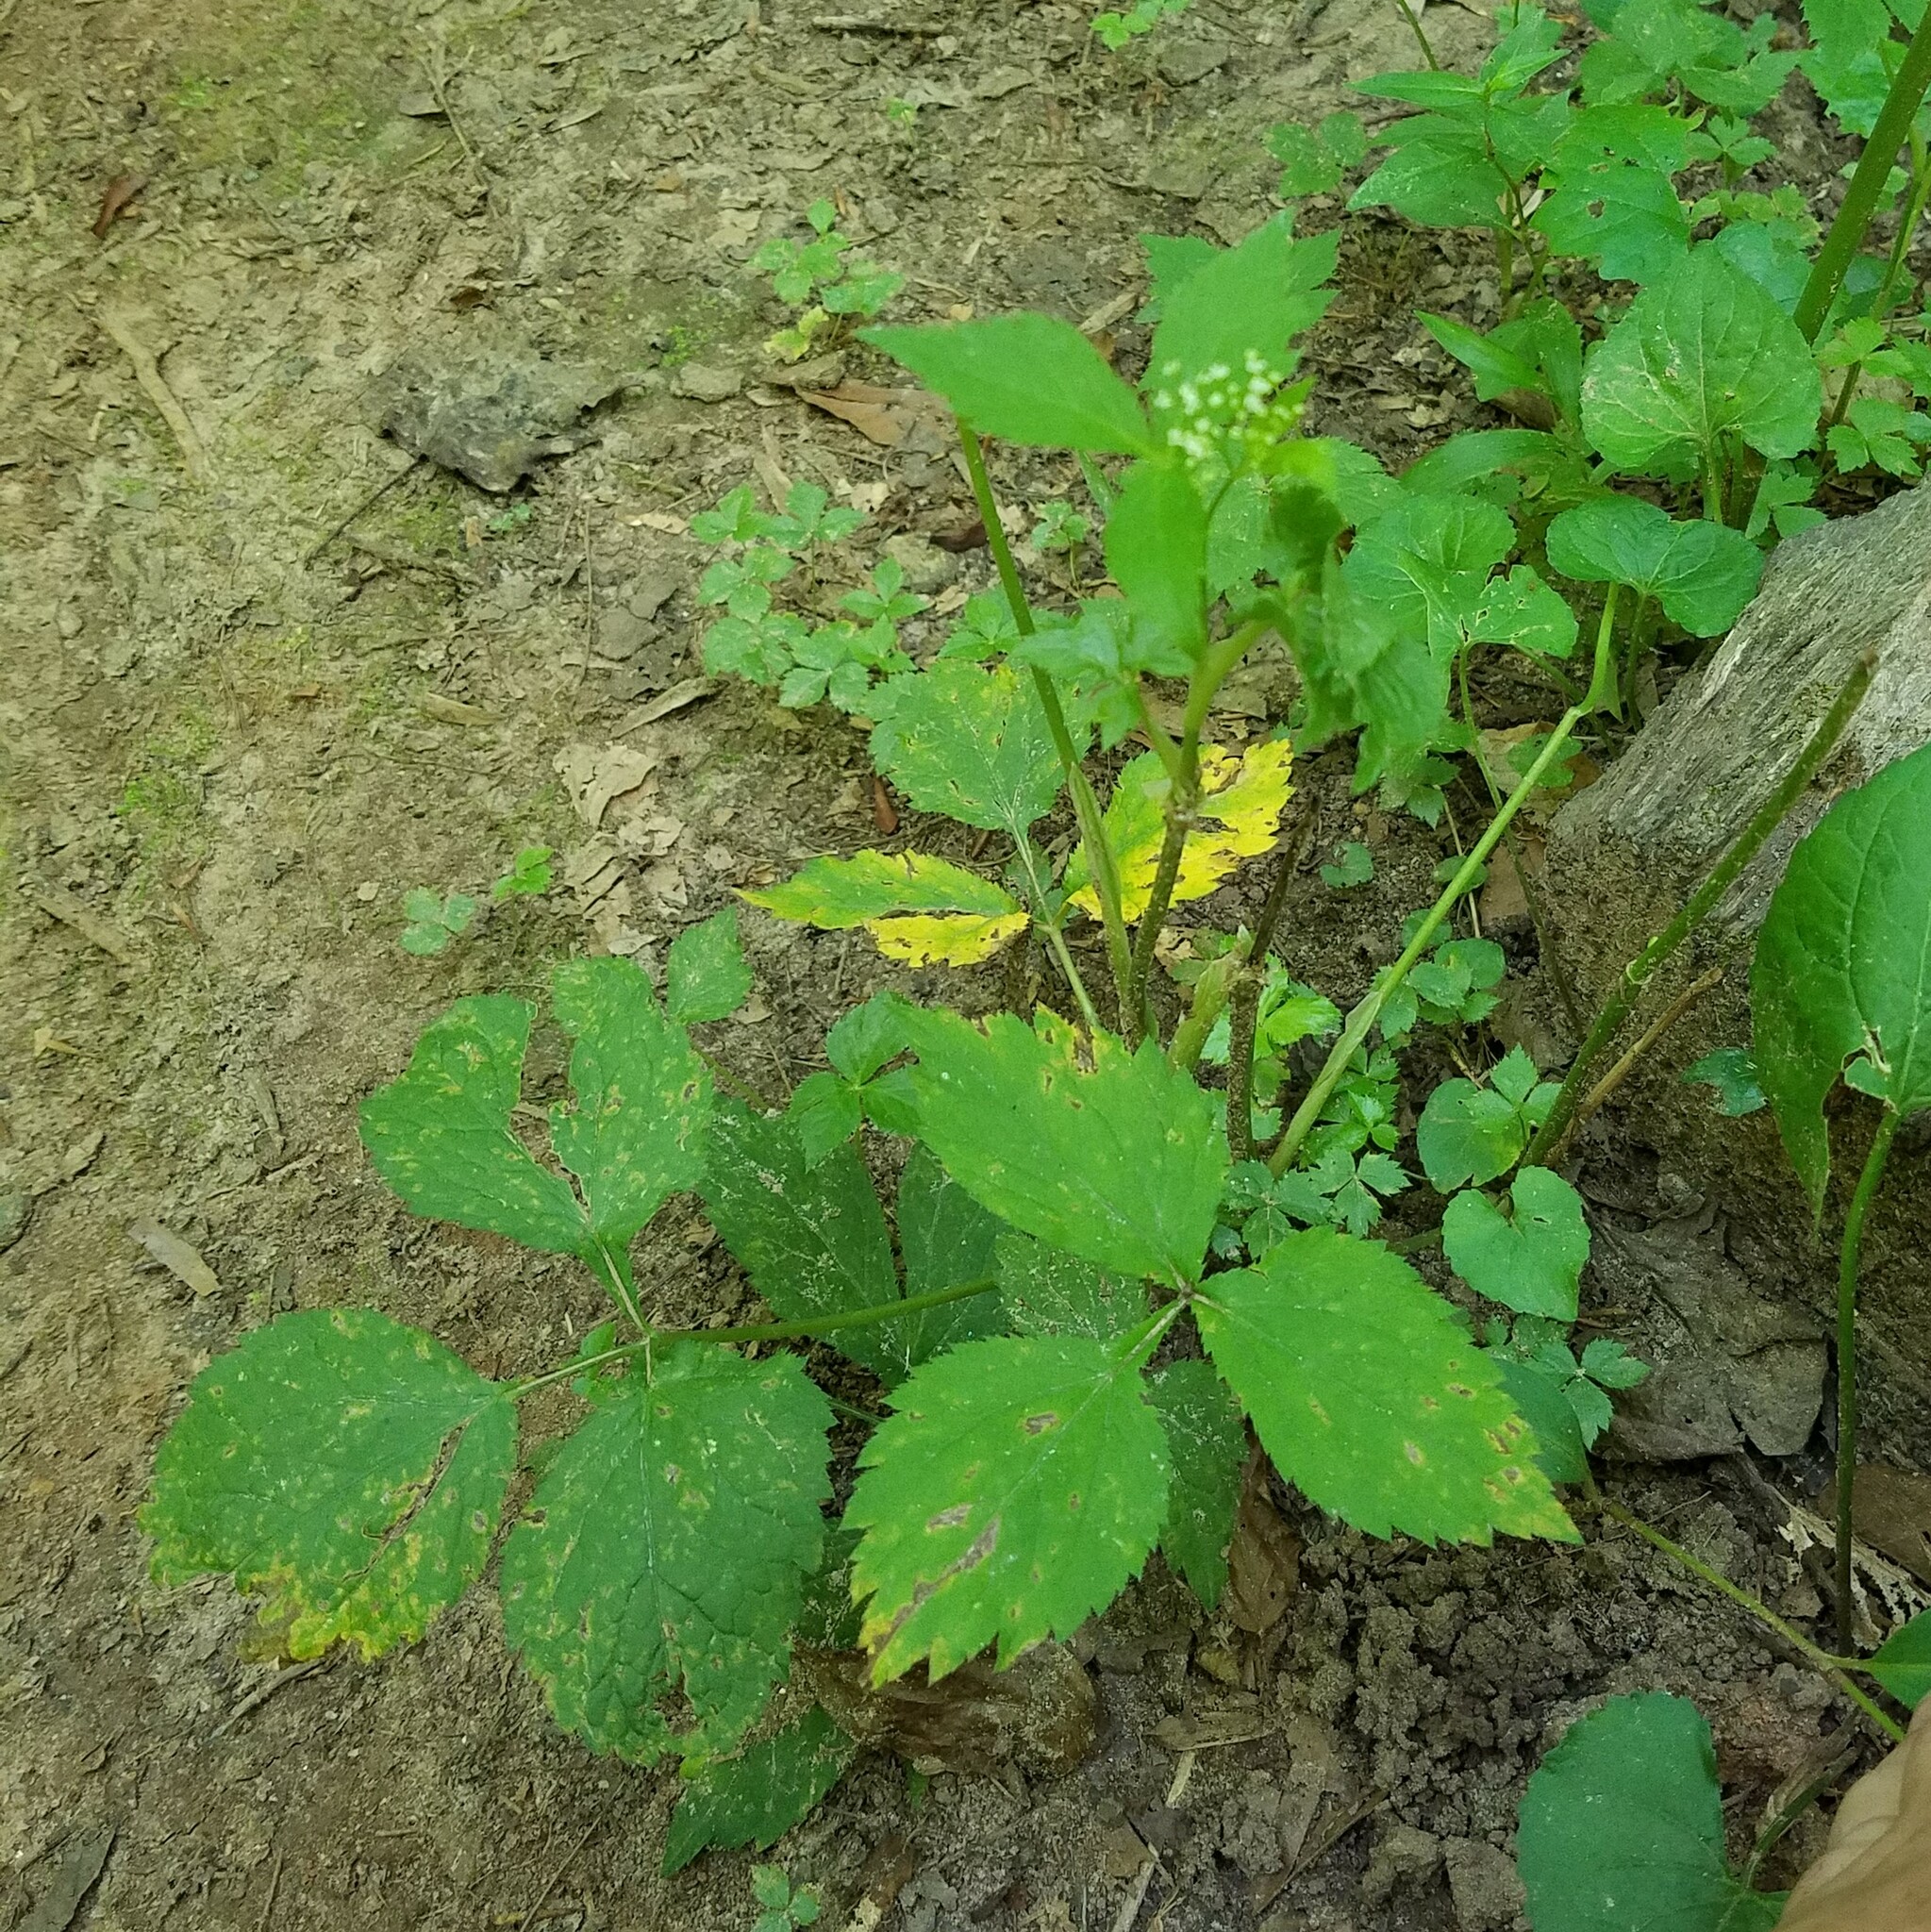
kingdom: Plantae
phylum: Tracheophyta
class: Magnoliopsida
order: Apiales
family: Apiaceae
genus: Cryptotaenia
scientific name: Cryptotaenia canadensis
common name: Honewort
